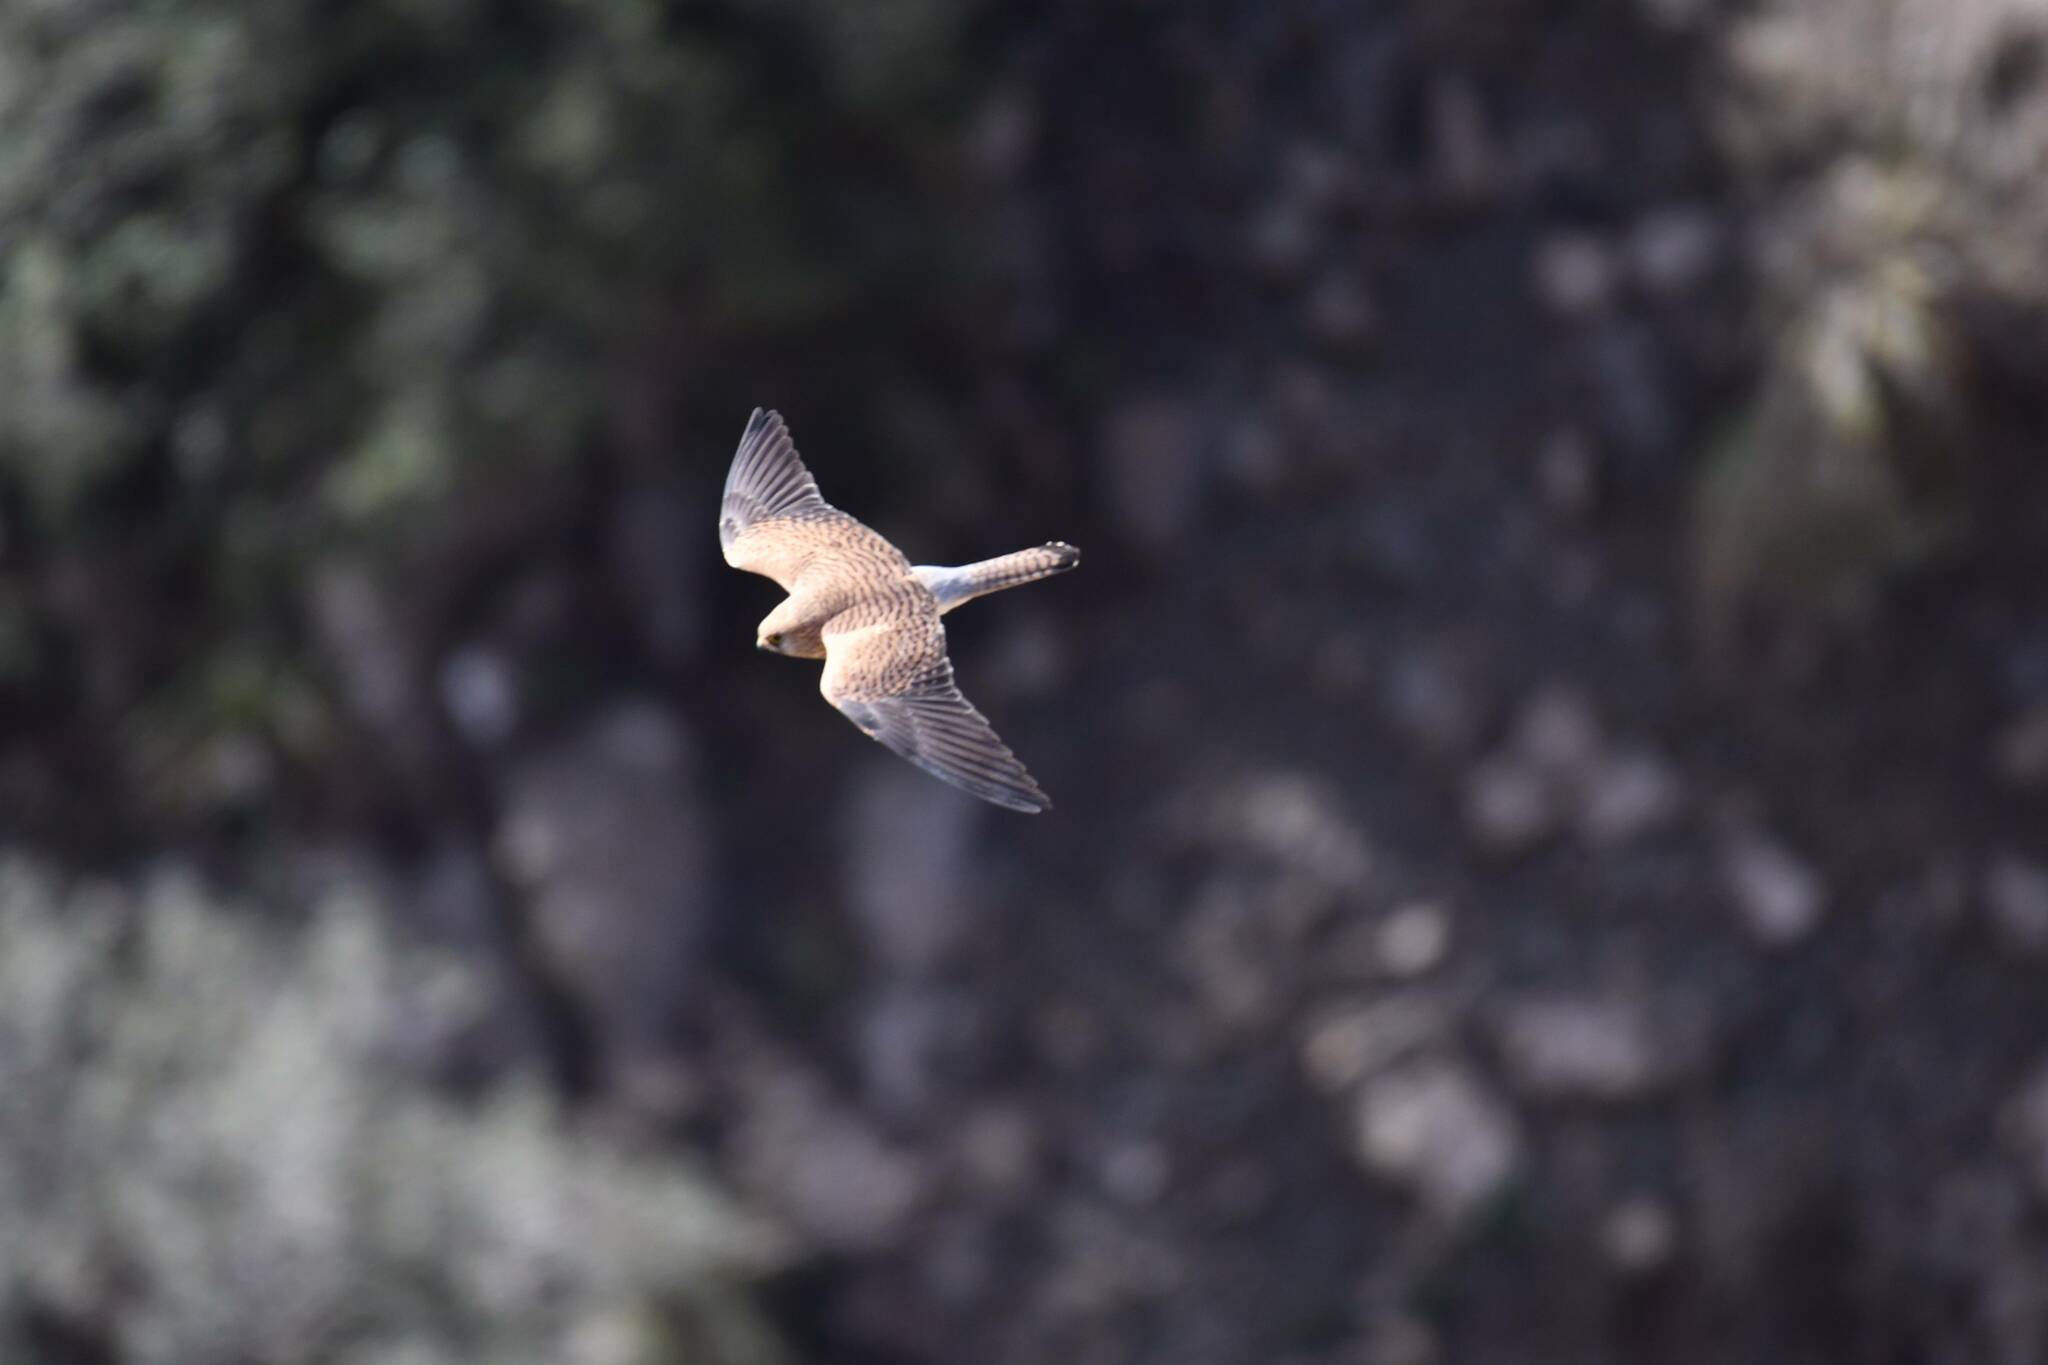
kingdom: Animalia
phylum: Chordata
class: Aves
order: Falconiformes
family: Falconidae
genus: Falco
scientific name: Falco tinnunculus
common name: Common kestrel
